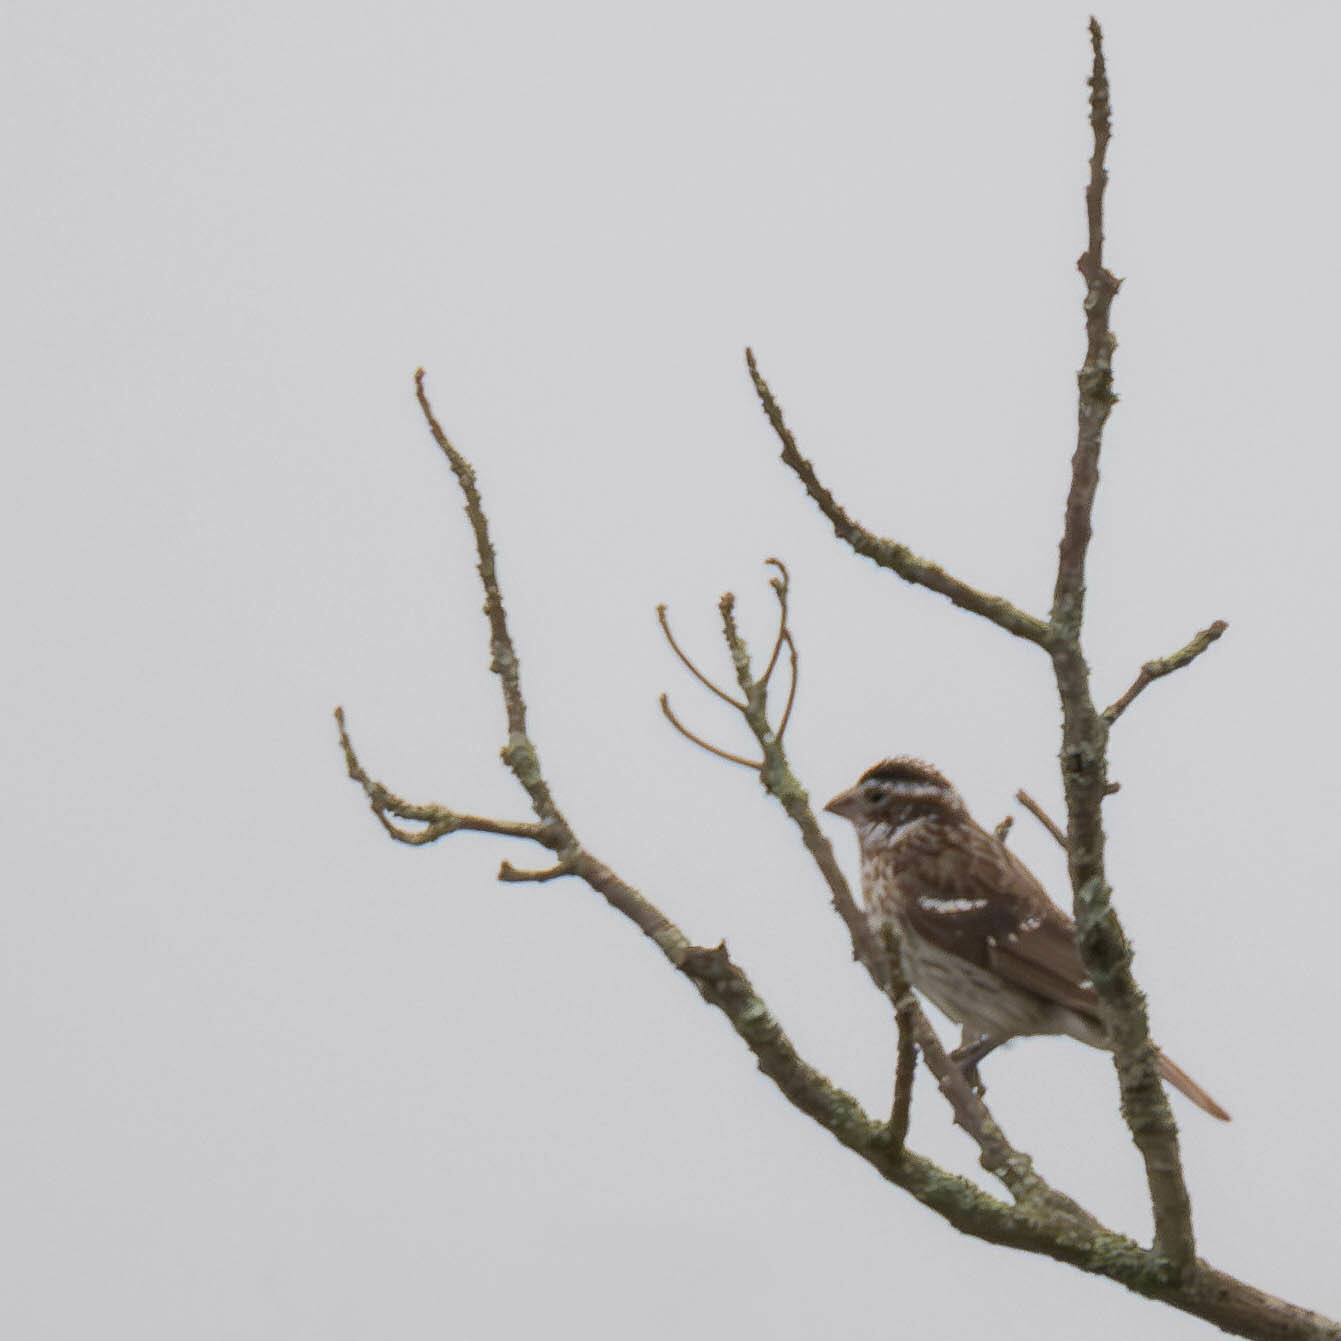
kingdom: Animalia
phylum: Chordata
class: Aves
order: Passeriformes
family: Cardinalidae
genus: Pheucticus
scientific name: Pheucticus ludovicianus
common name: Rose-breasted grosbeak
